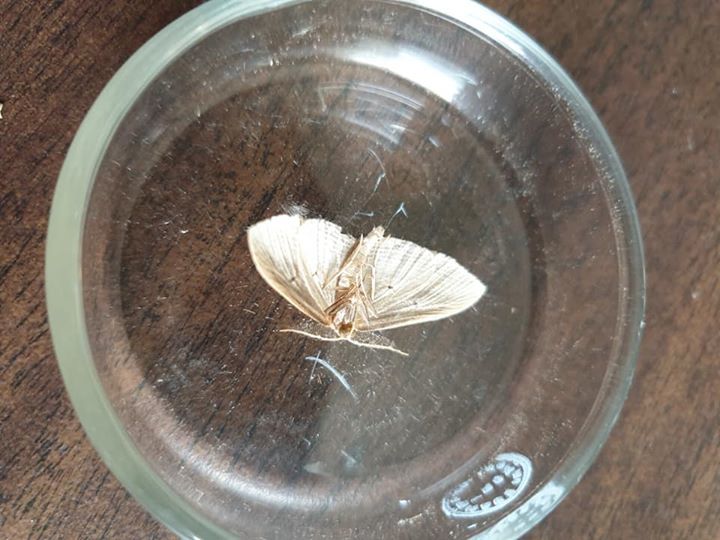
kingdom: Animalia
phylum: Arthropoda
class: Insecta
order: Lepidoptera
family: Geometridae
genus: Epiphryne
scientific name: Epiphryne verriculata
